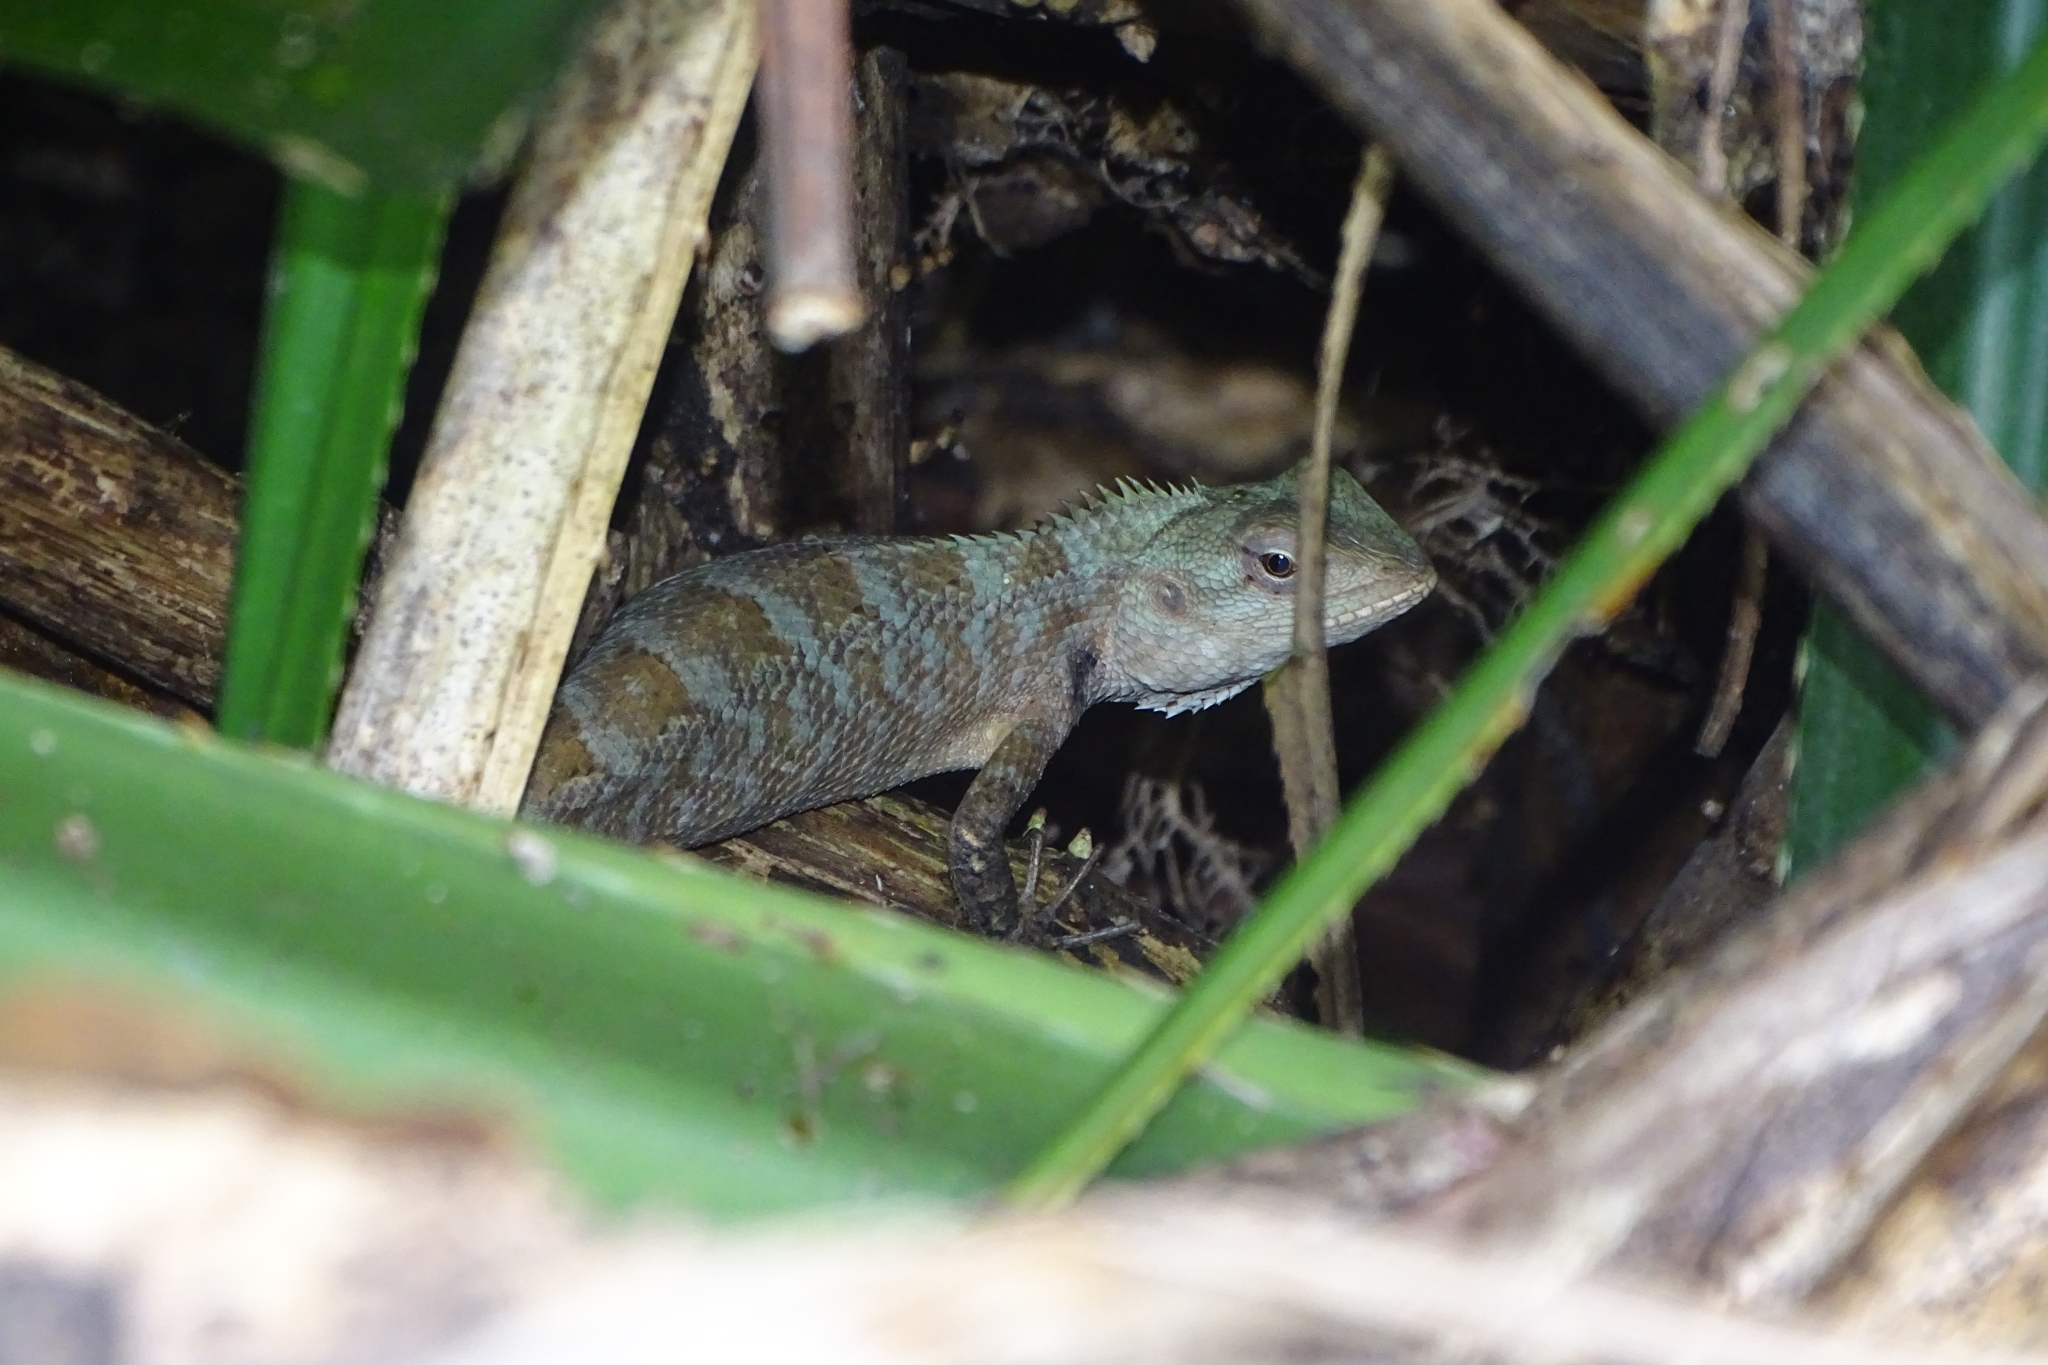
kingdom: Animalia
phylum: Chordata
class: Squamata
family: Agamidae
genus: Calotes
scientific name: Calotes versicolor
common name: Oriental garden lizard
